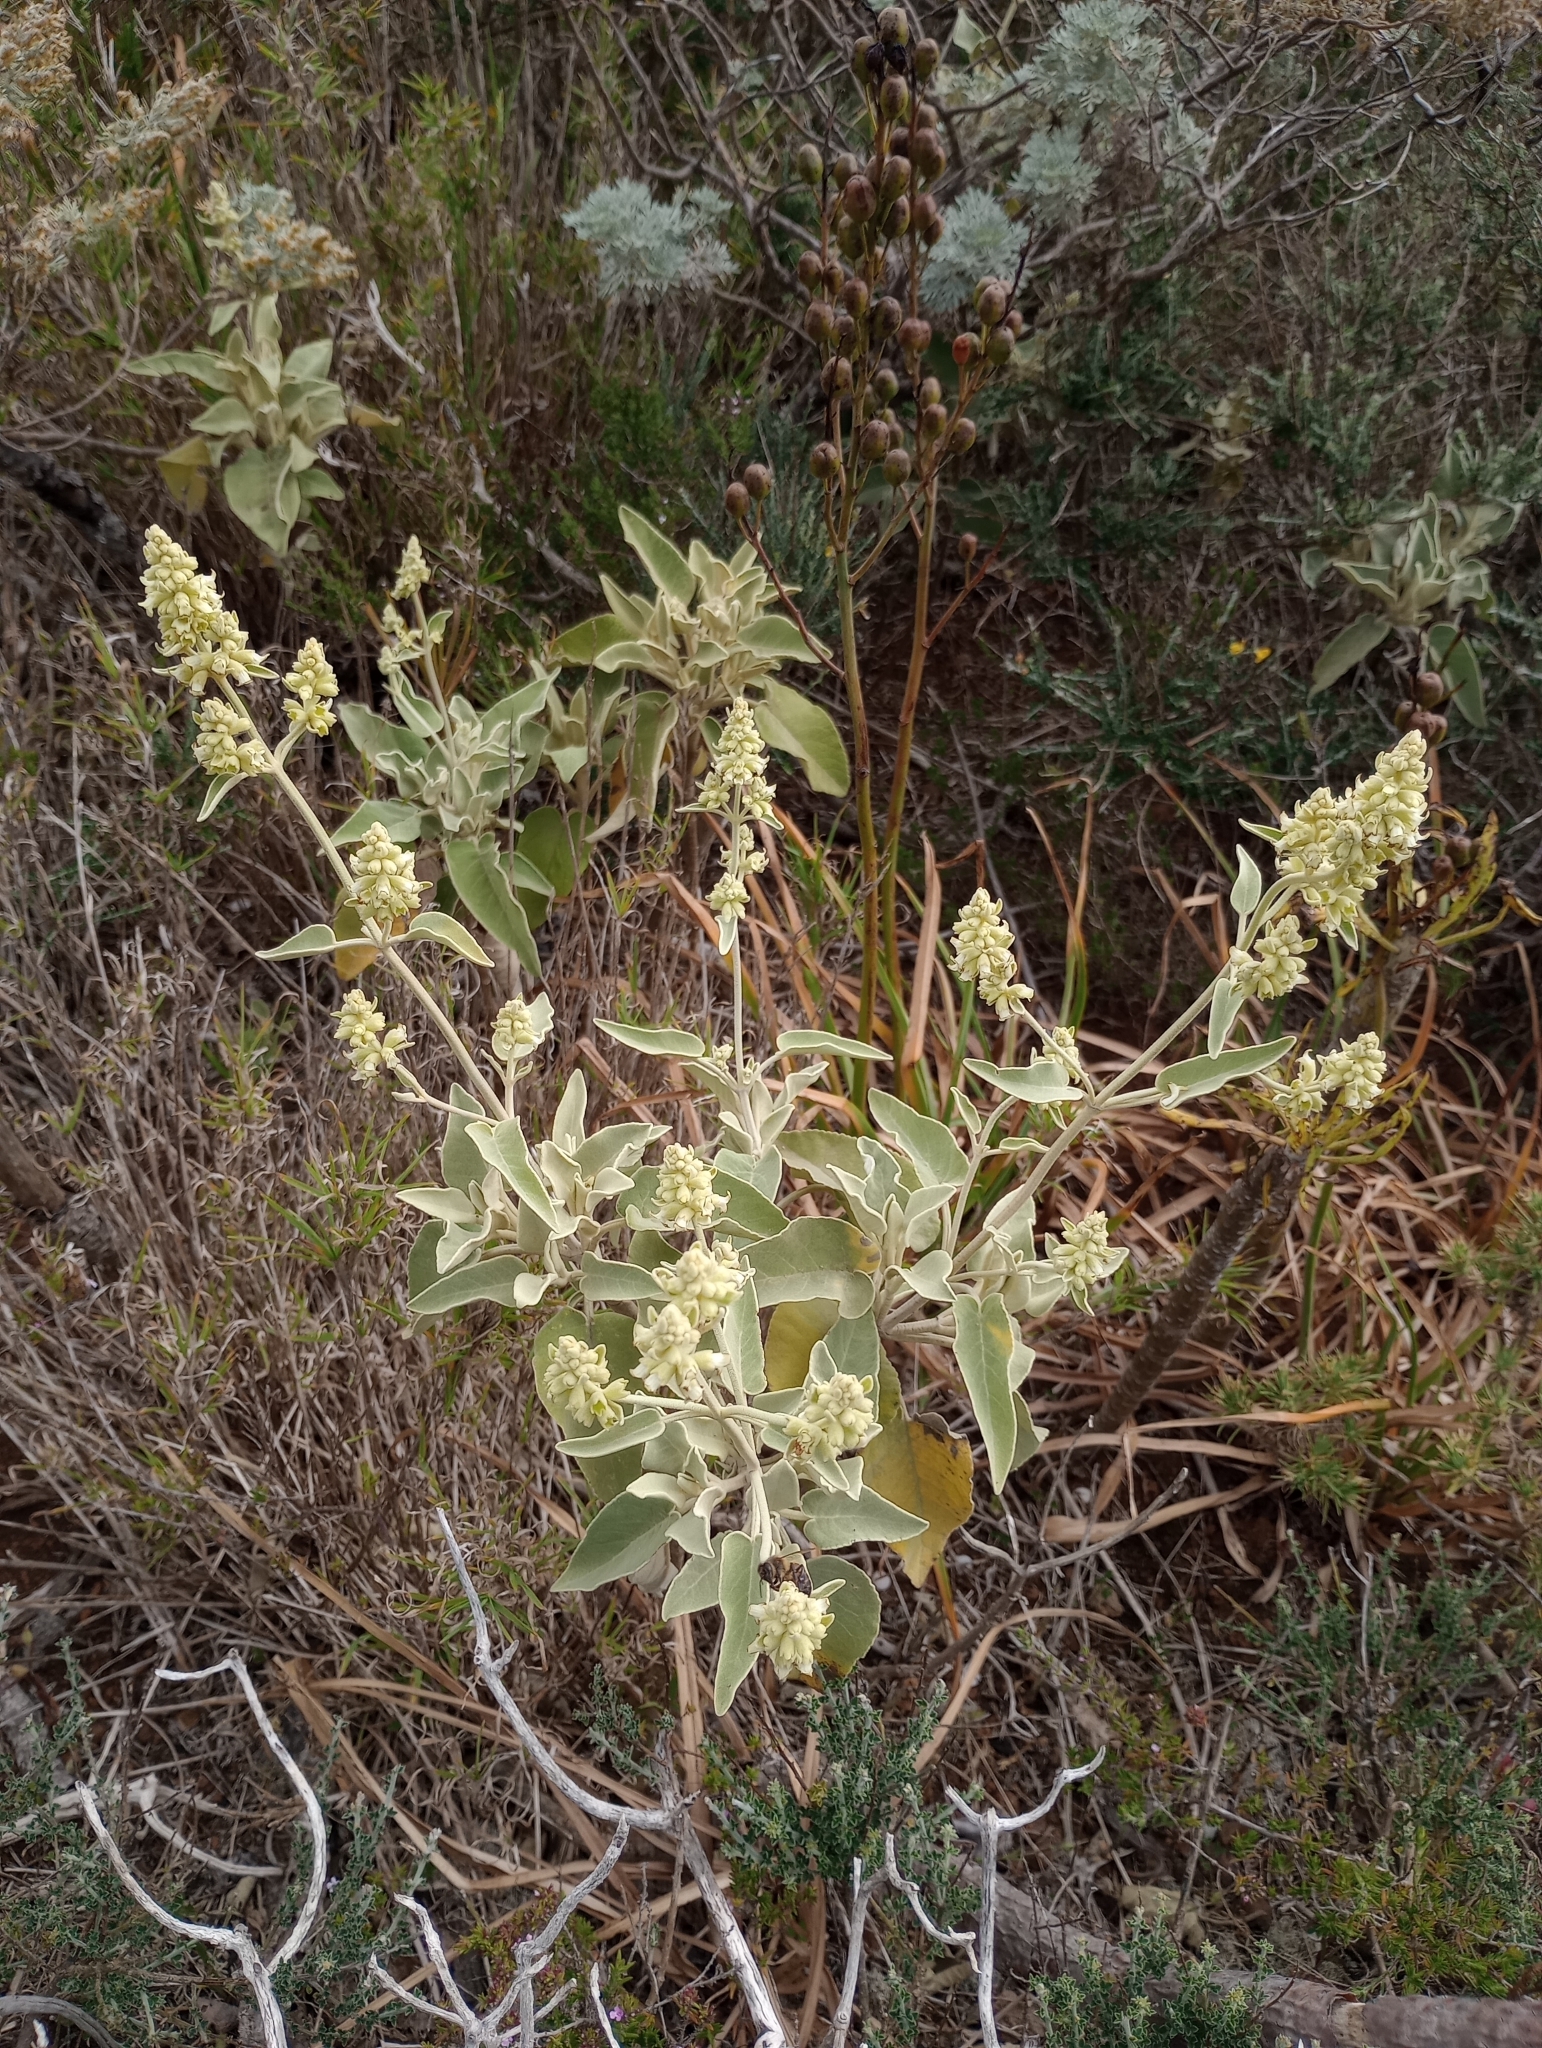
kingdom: Plantae
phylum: Tracheophyta
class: Magnoliopsida
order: Lamiales
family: Lamiaceae
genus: Sideritis
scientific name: Sideritis dendrochahorra
